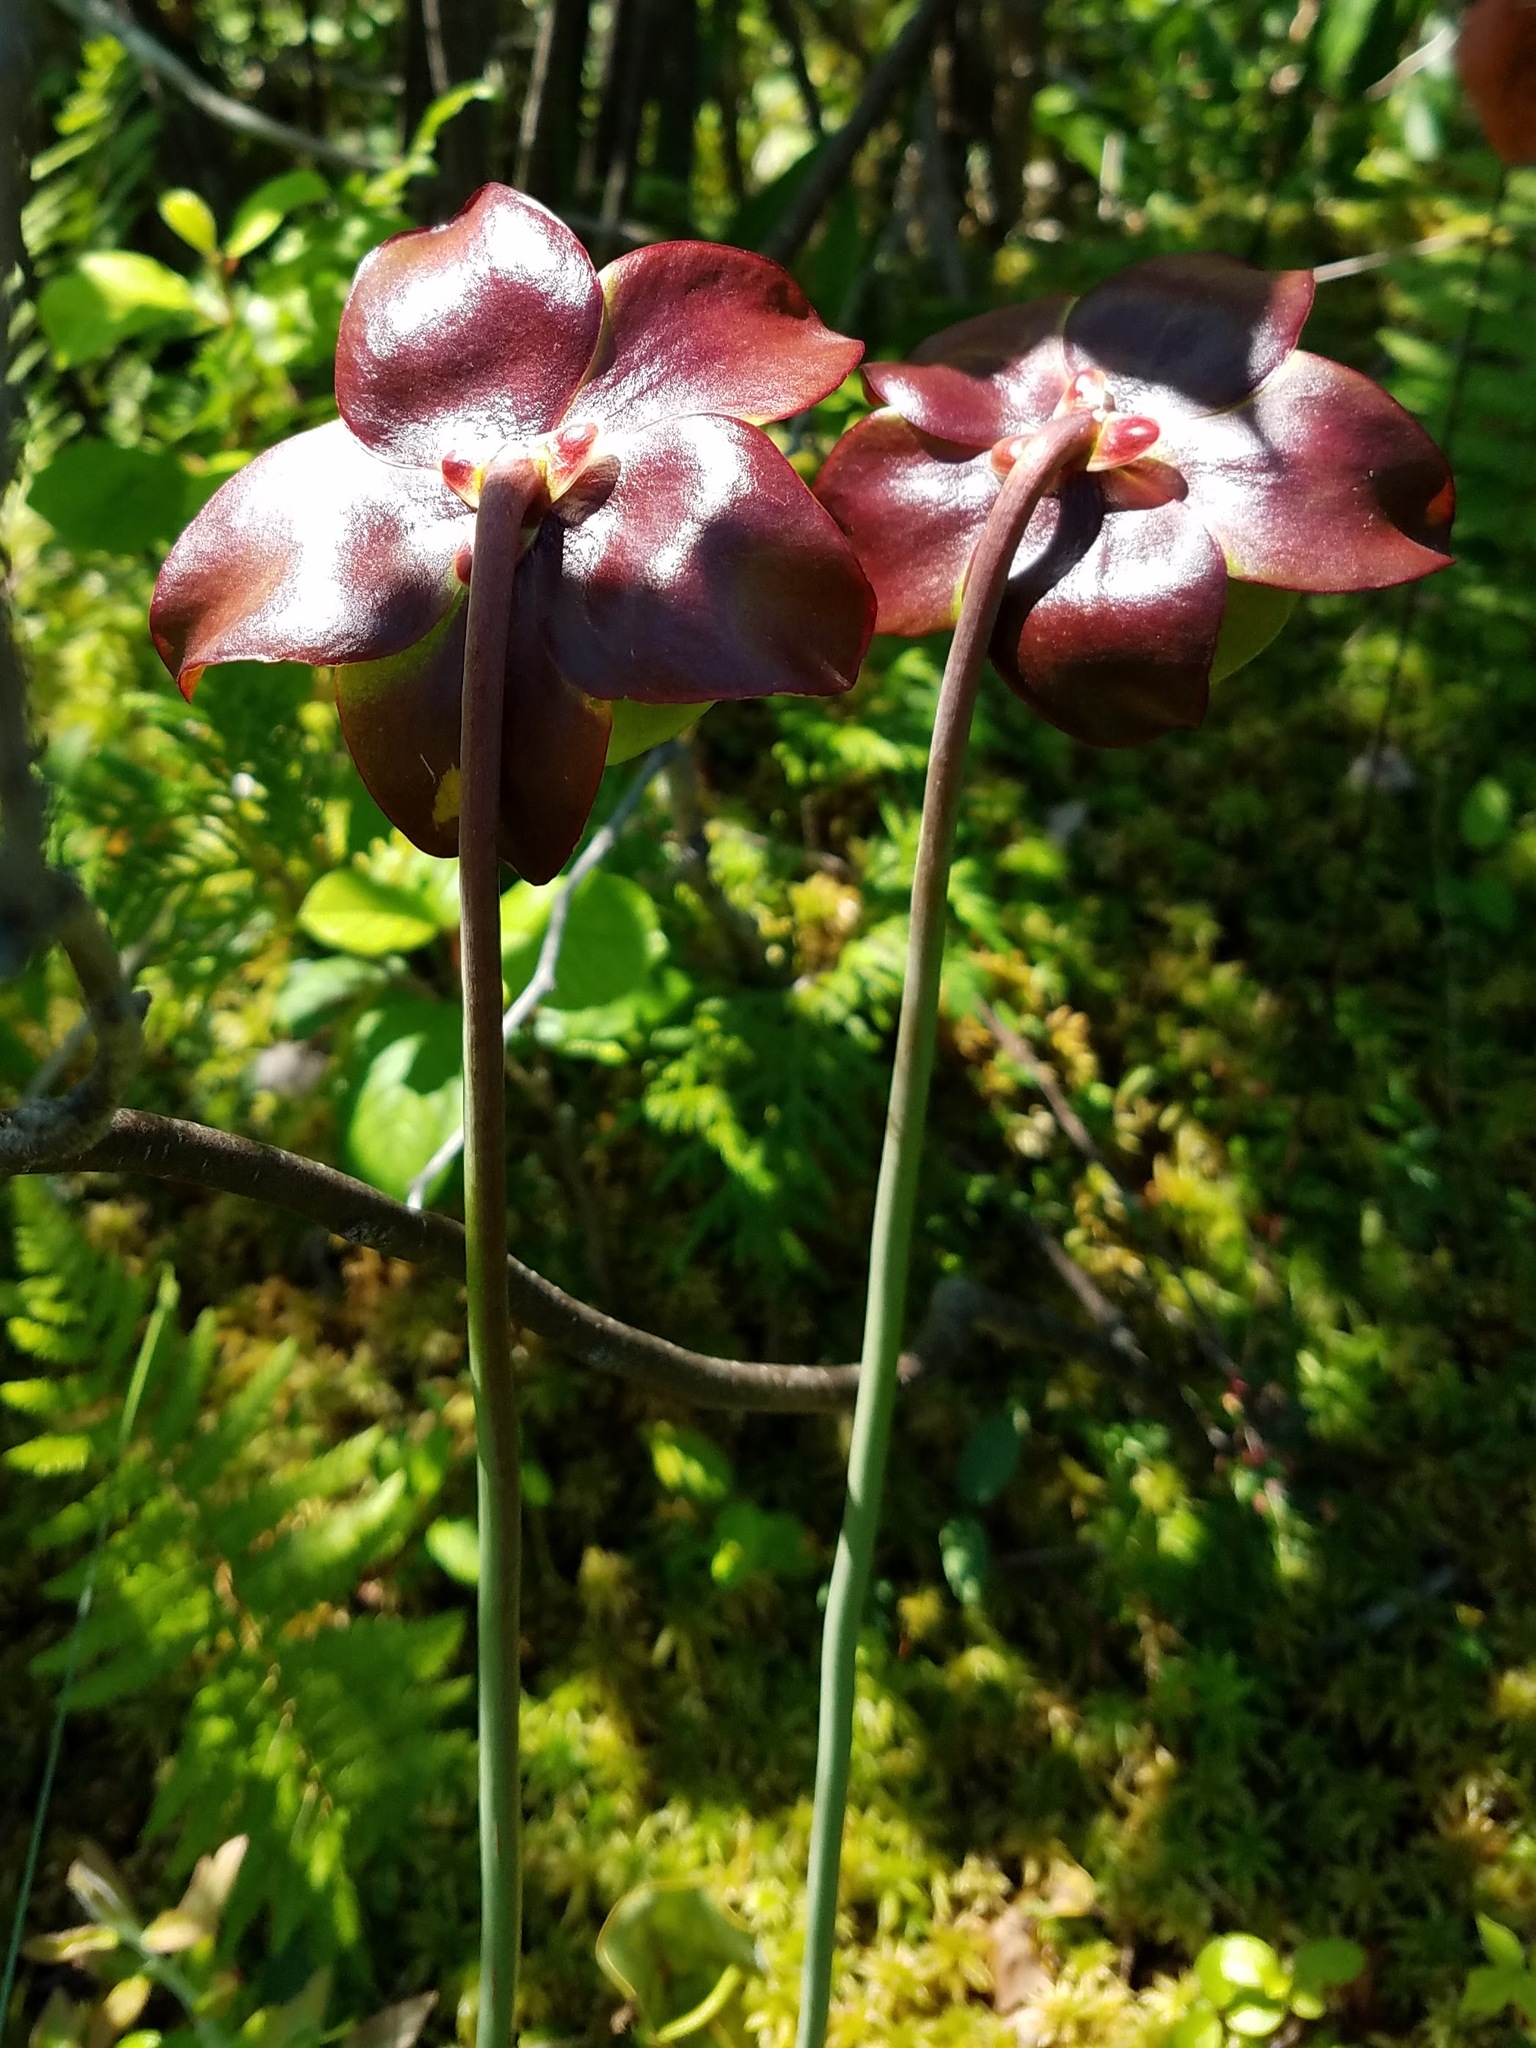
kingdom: Plantae
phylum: Tracheophyta
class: Magnoliopsida
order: Ericales
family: Sarraceniaceae
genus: Sarracenia
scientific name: Sarracenia purpurea
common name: Pitcherplant
